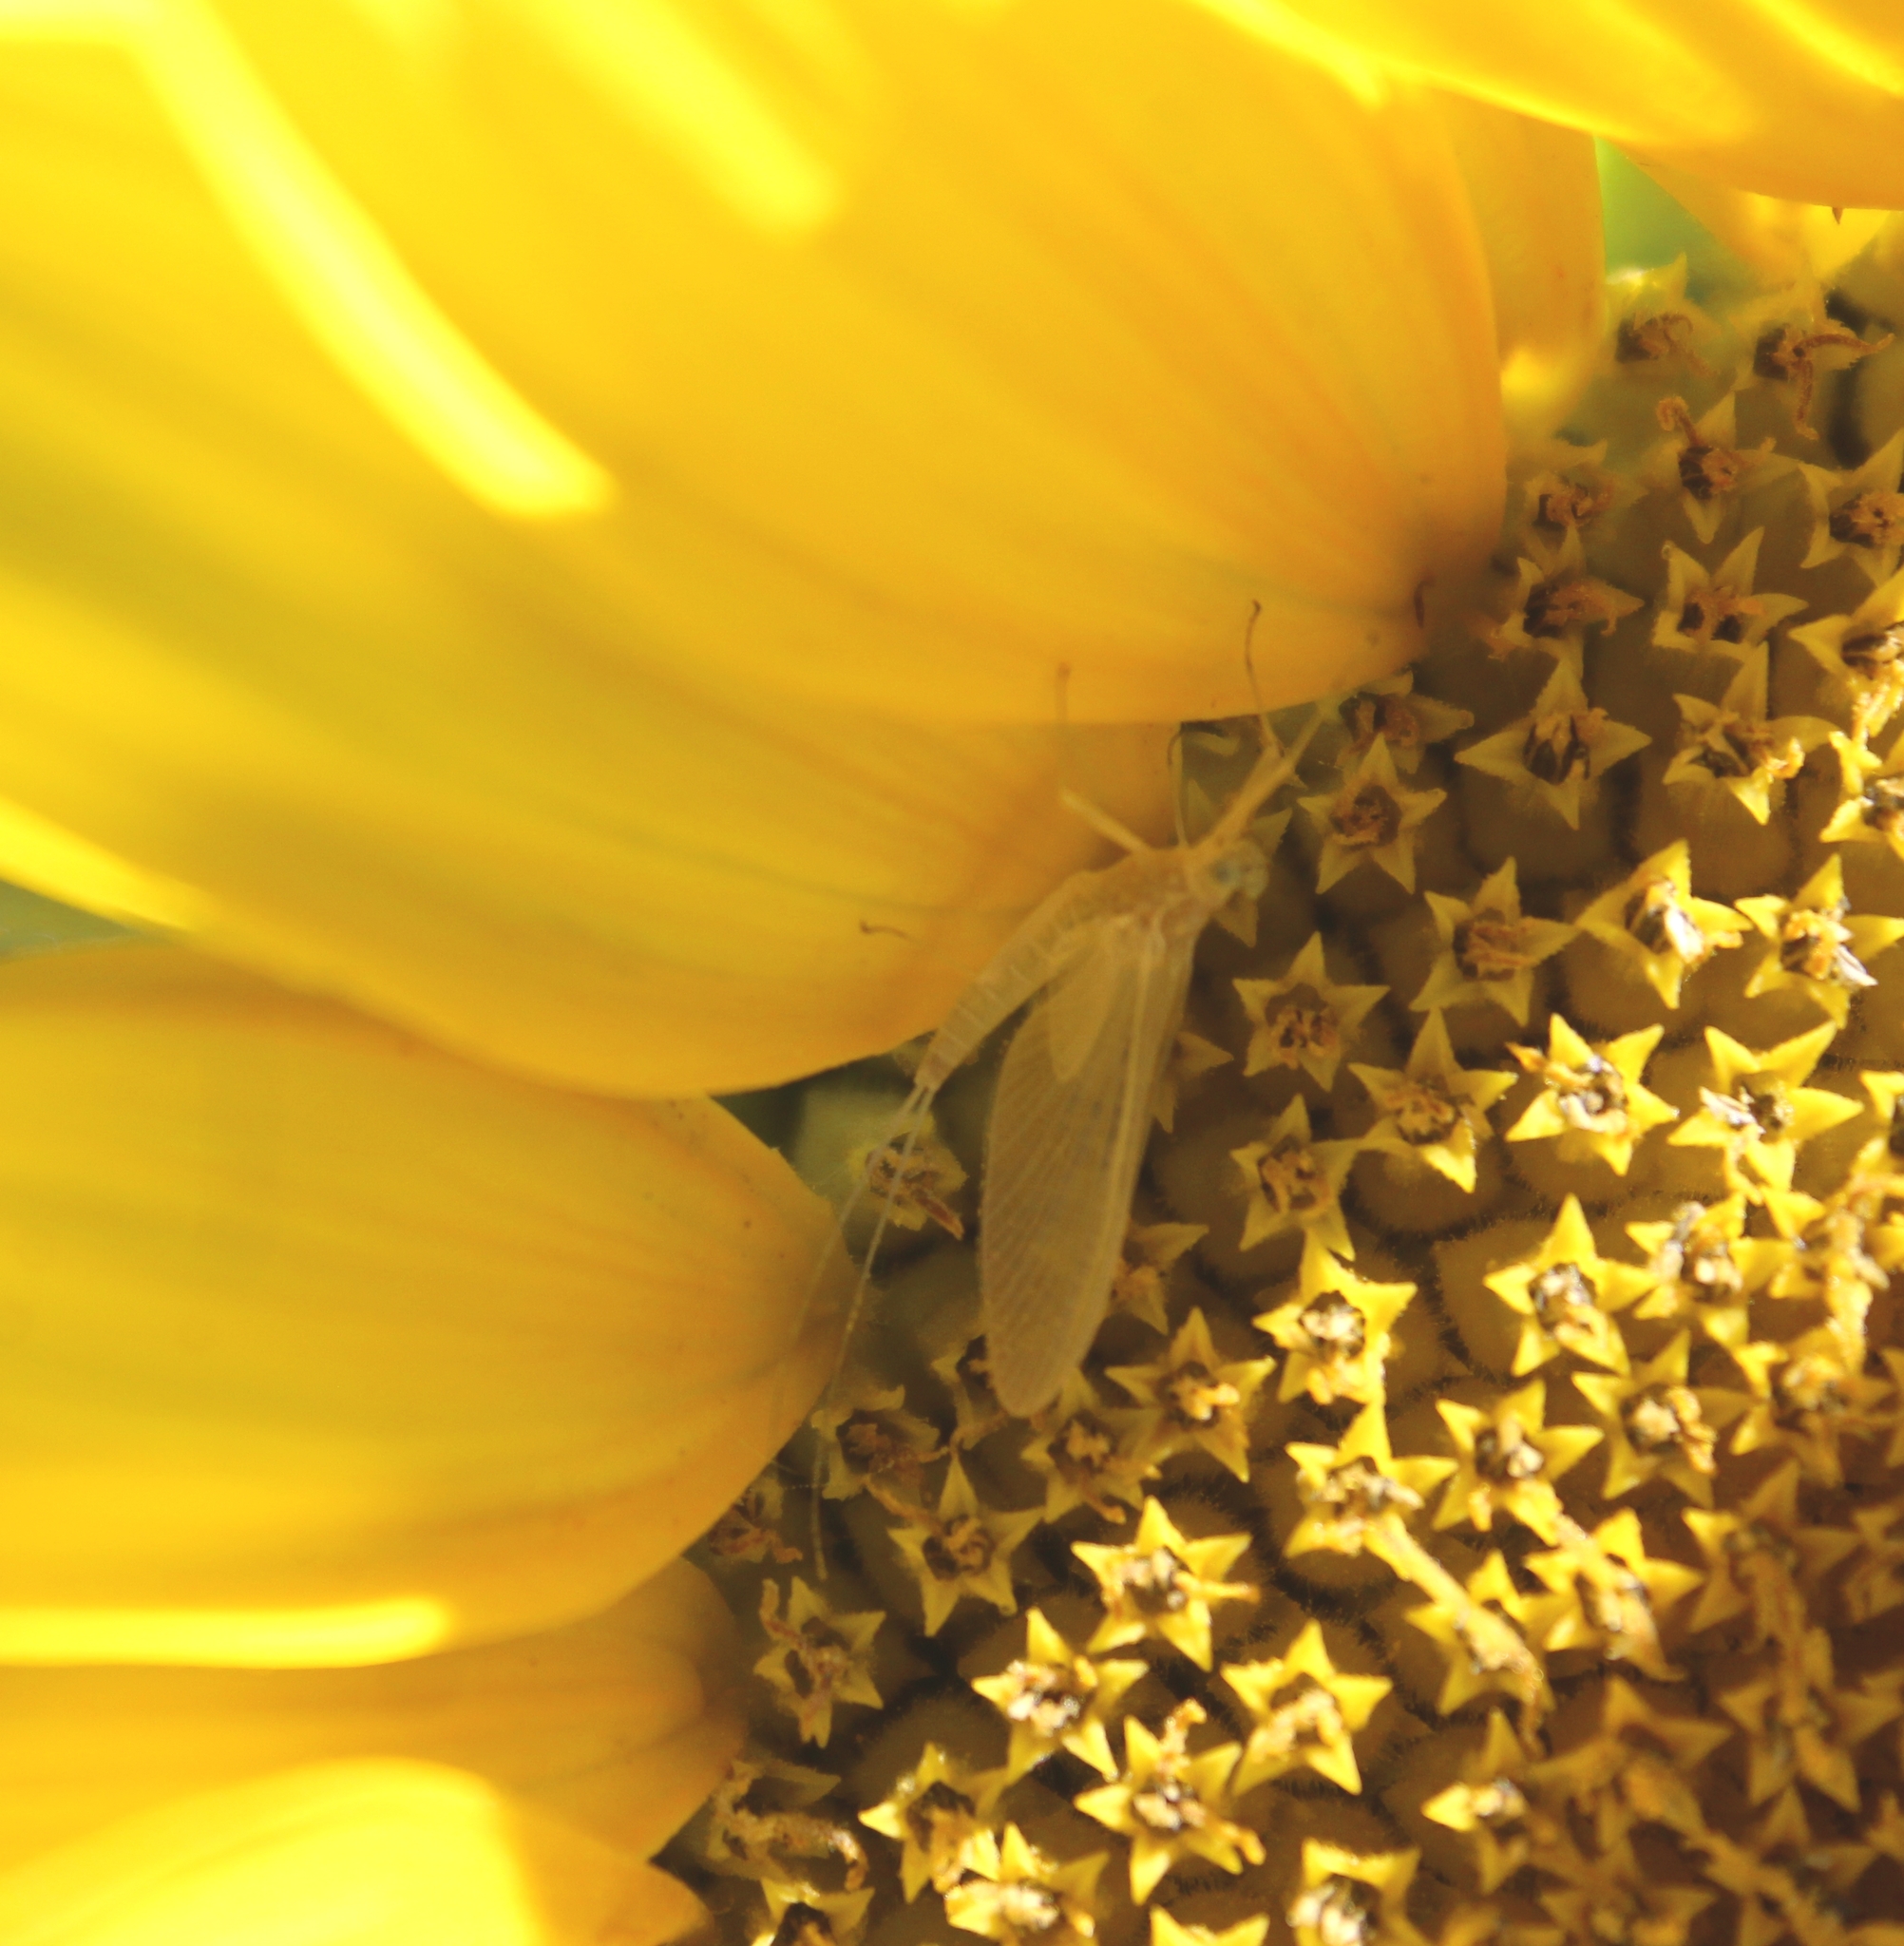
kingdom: Animalia
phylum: Arthropoda
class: Insecta
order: Ephemeroptera
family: Heptageniidae
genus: Heptagenia
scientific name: Heptagenia solitaria
